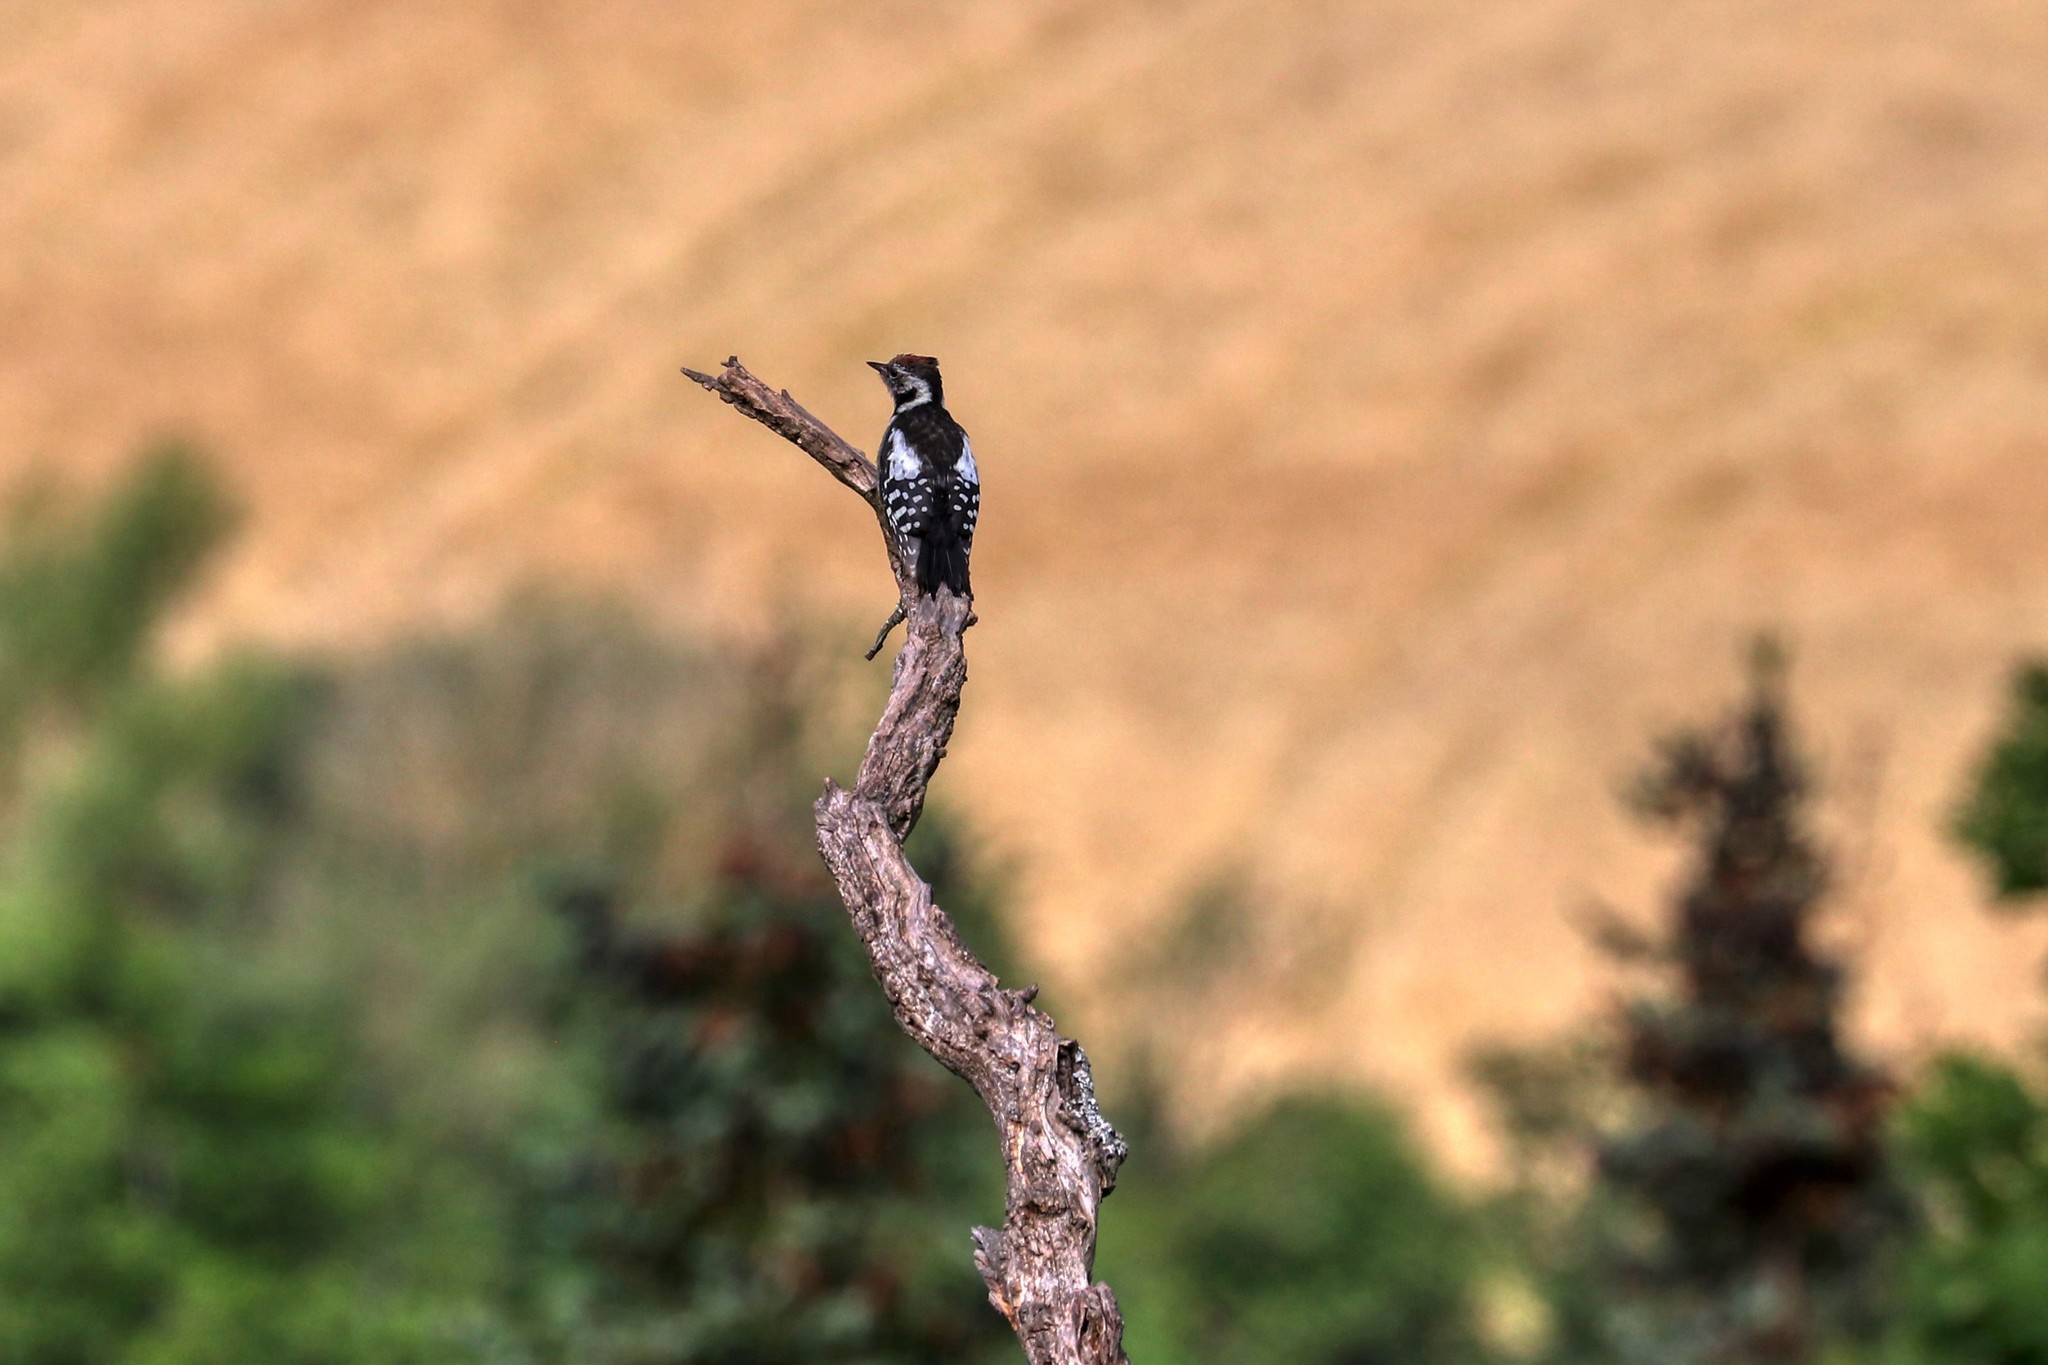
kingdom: Animalia
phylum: Chordata
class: Aves
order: Piciformes
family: Picidae
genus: Dendrocoptes
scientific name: Dendrocoptes medius
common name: Middle spotted woodpecker
